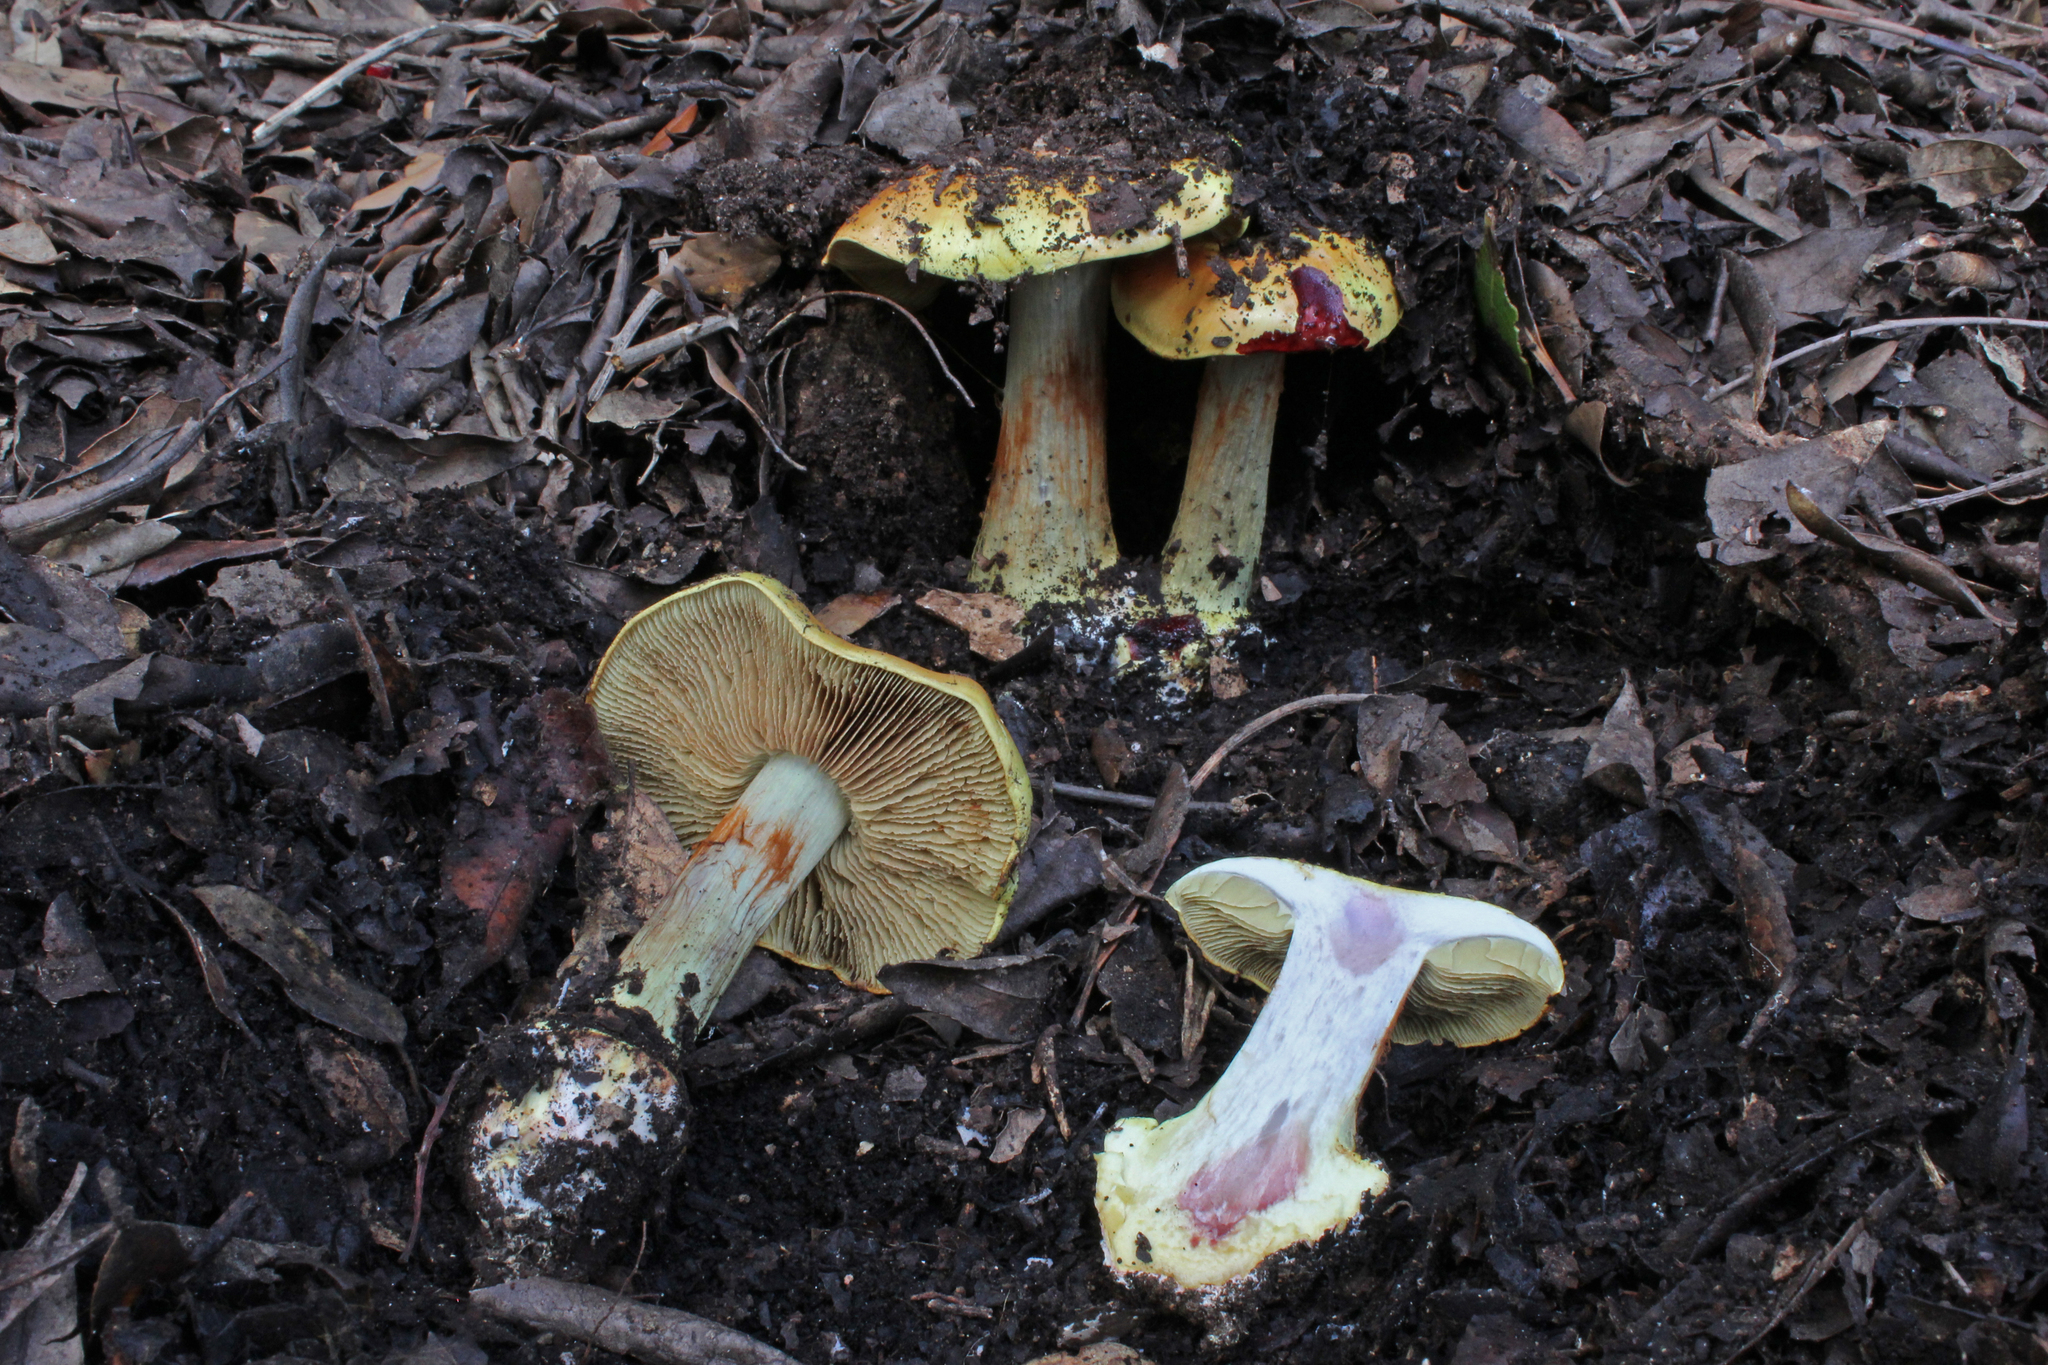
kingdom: Fungi
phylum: Basidiomycota
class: Agaricomycetes
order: Agaricales
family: Cortinariaceae
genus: Cortinarius
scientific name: Cortinarius bergeronii
